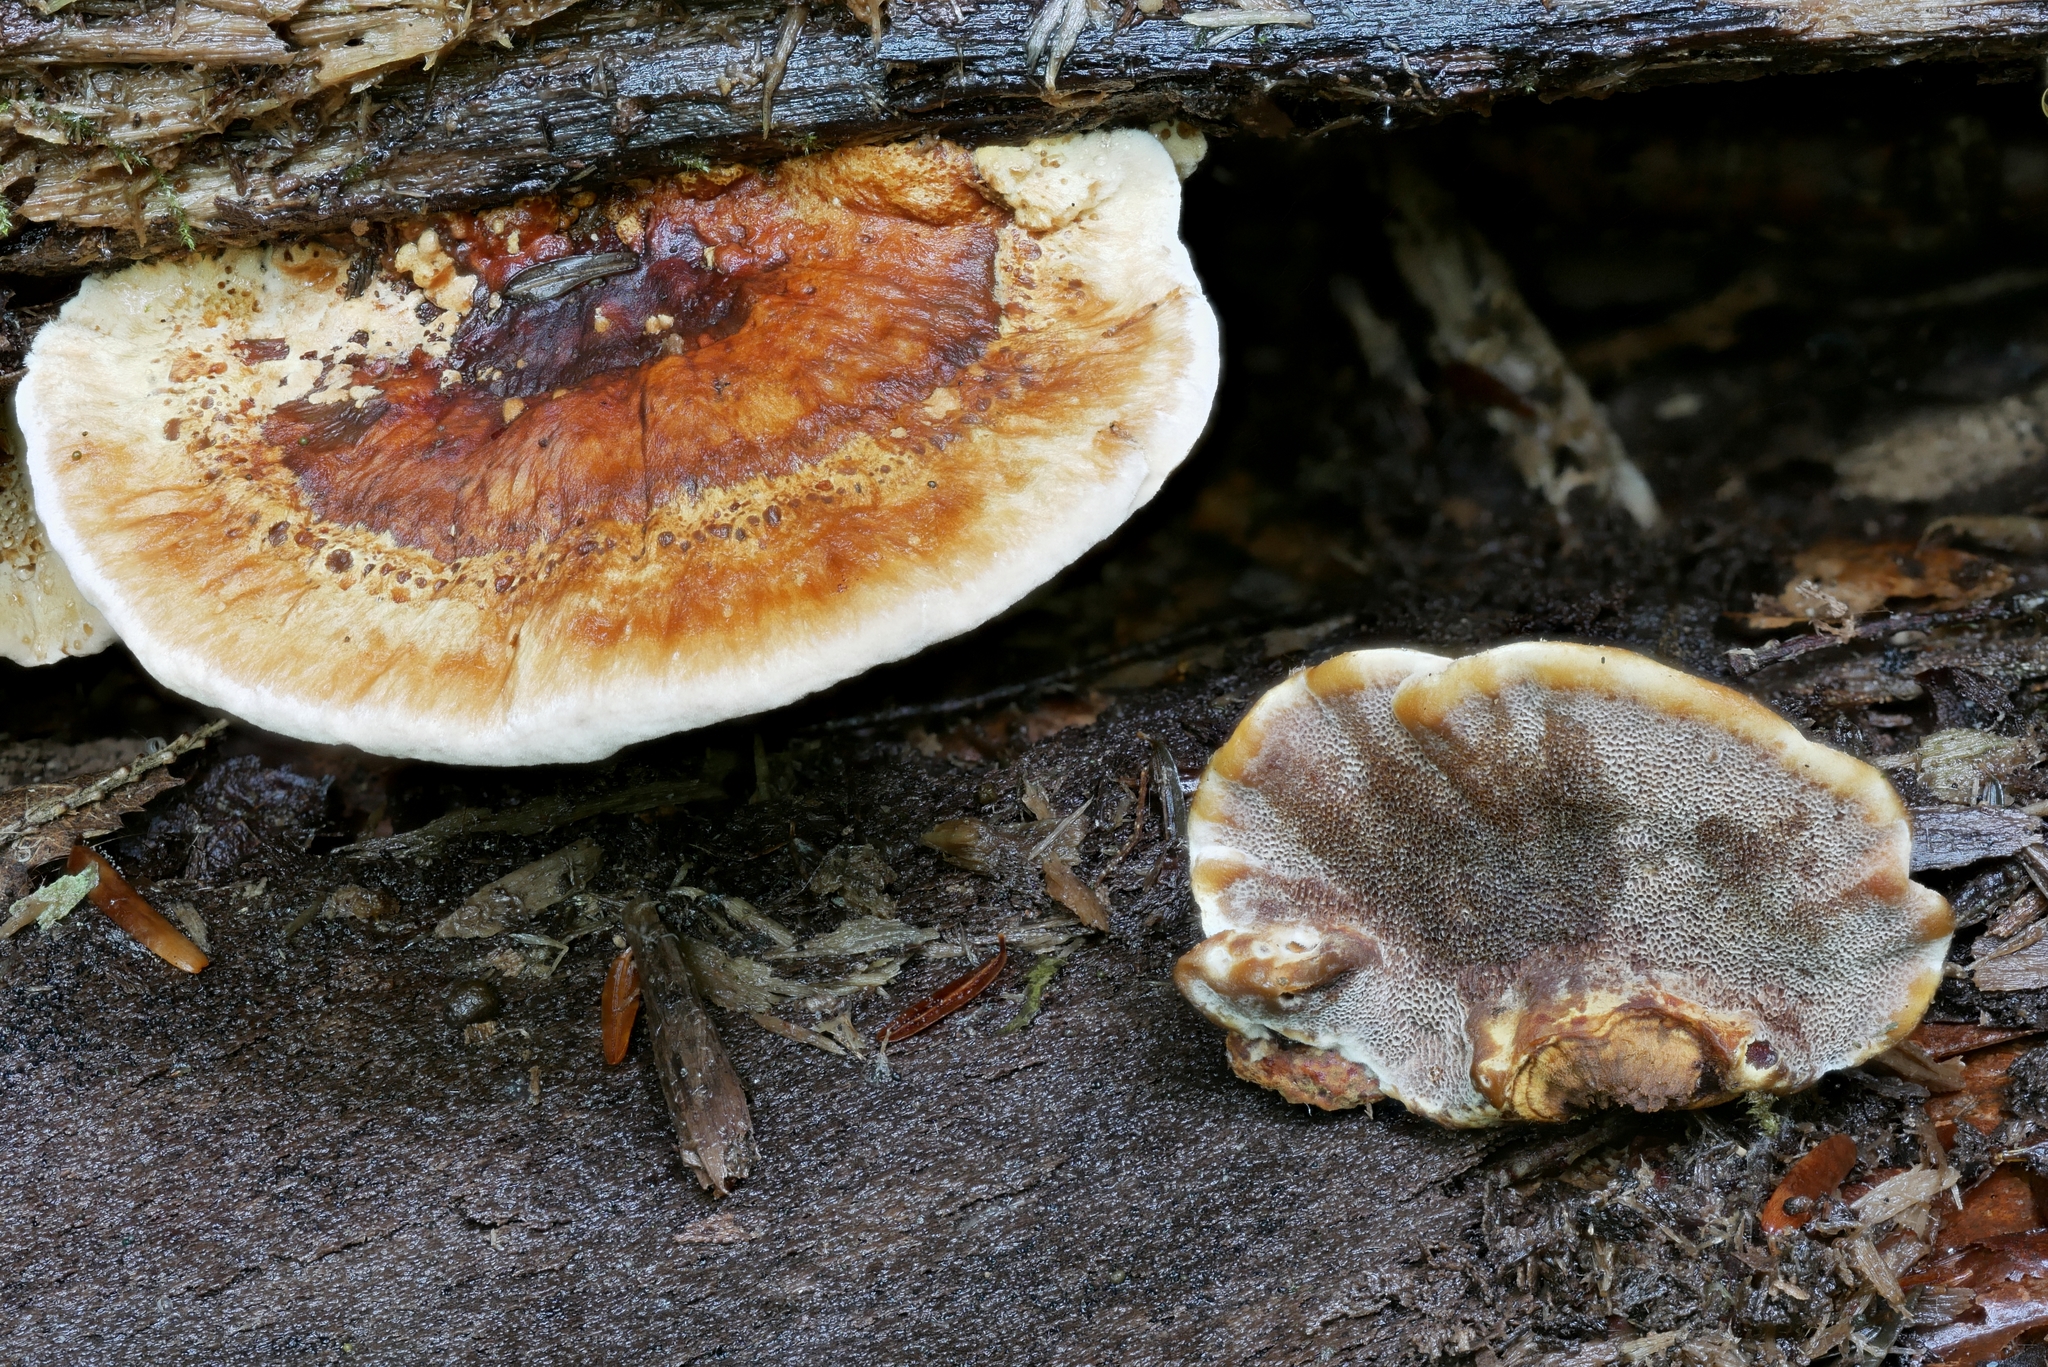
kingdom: Fungi
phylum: Basidiomycota
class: Agaricomycetes
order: Hymenochaetales
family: Hymenochaetaceae
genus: Xanthoporia
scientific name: Xanthoporia radiata
